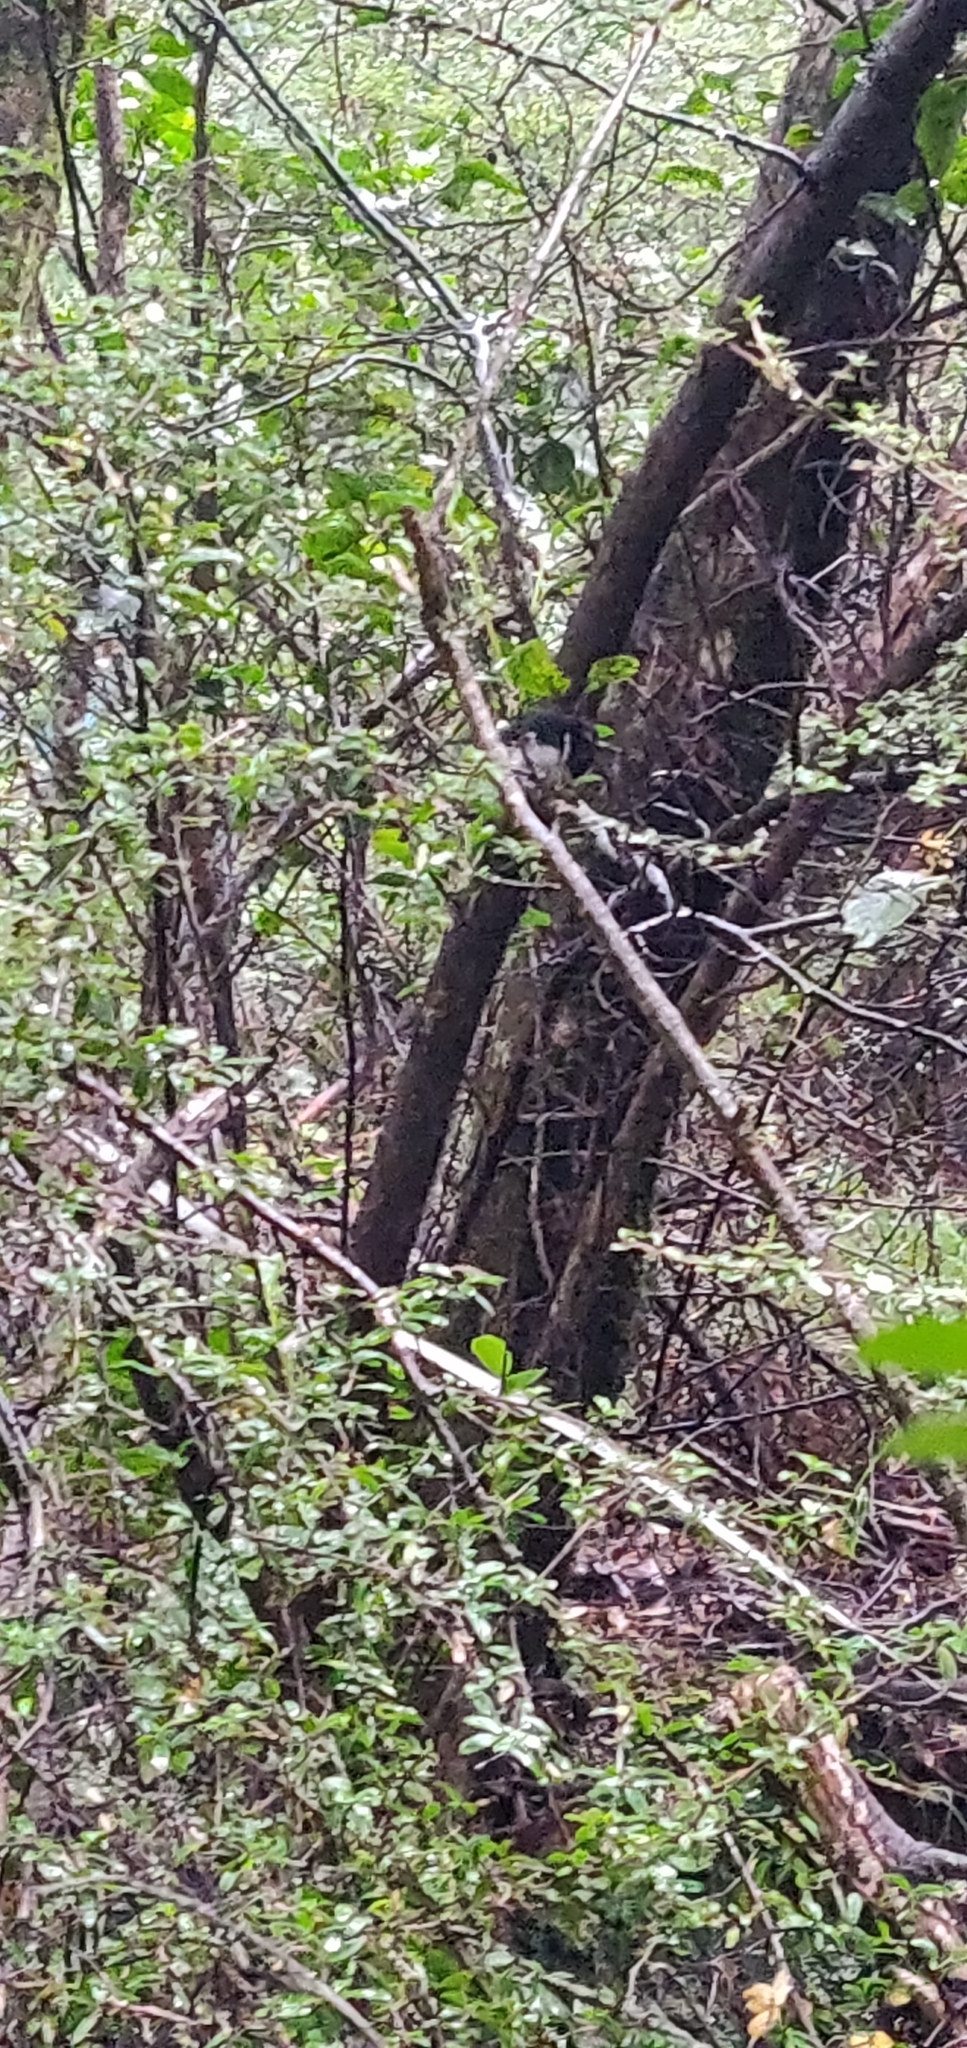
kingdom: Animalia
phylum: Chordata
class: Aves
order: Passeriformes
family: Petroicidae
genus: Petroica
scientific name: Petroica macrocephala
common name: Tomtit
